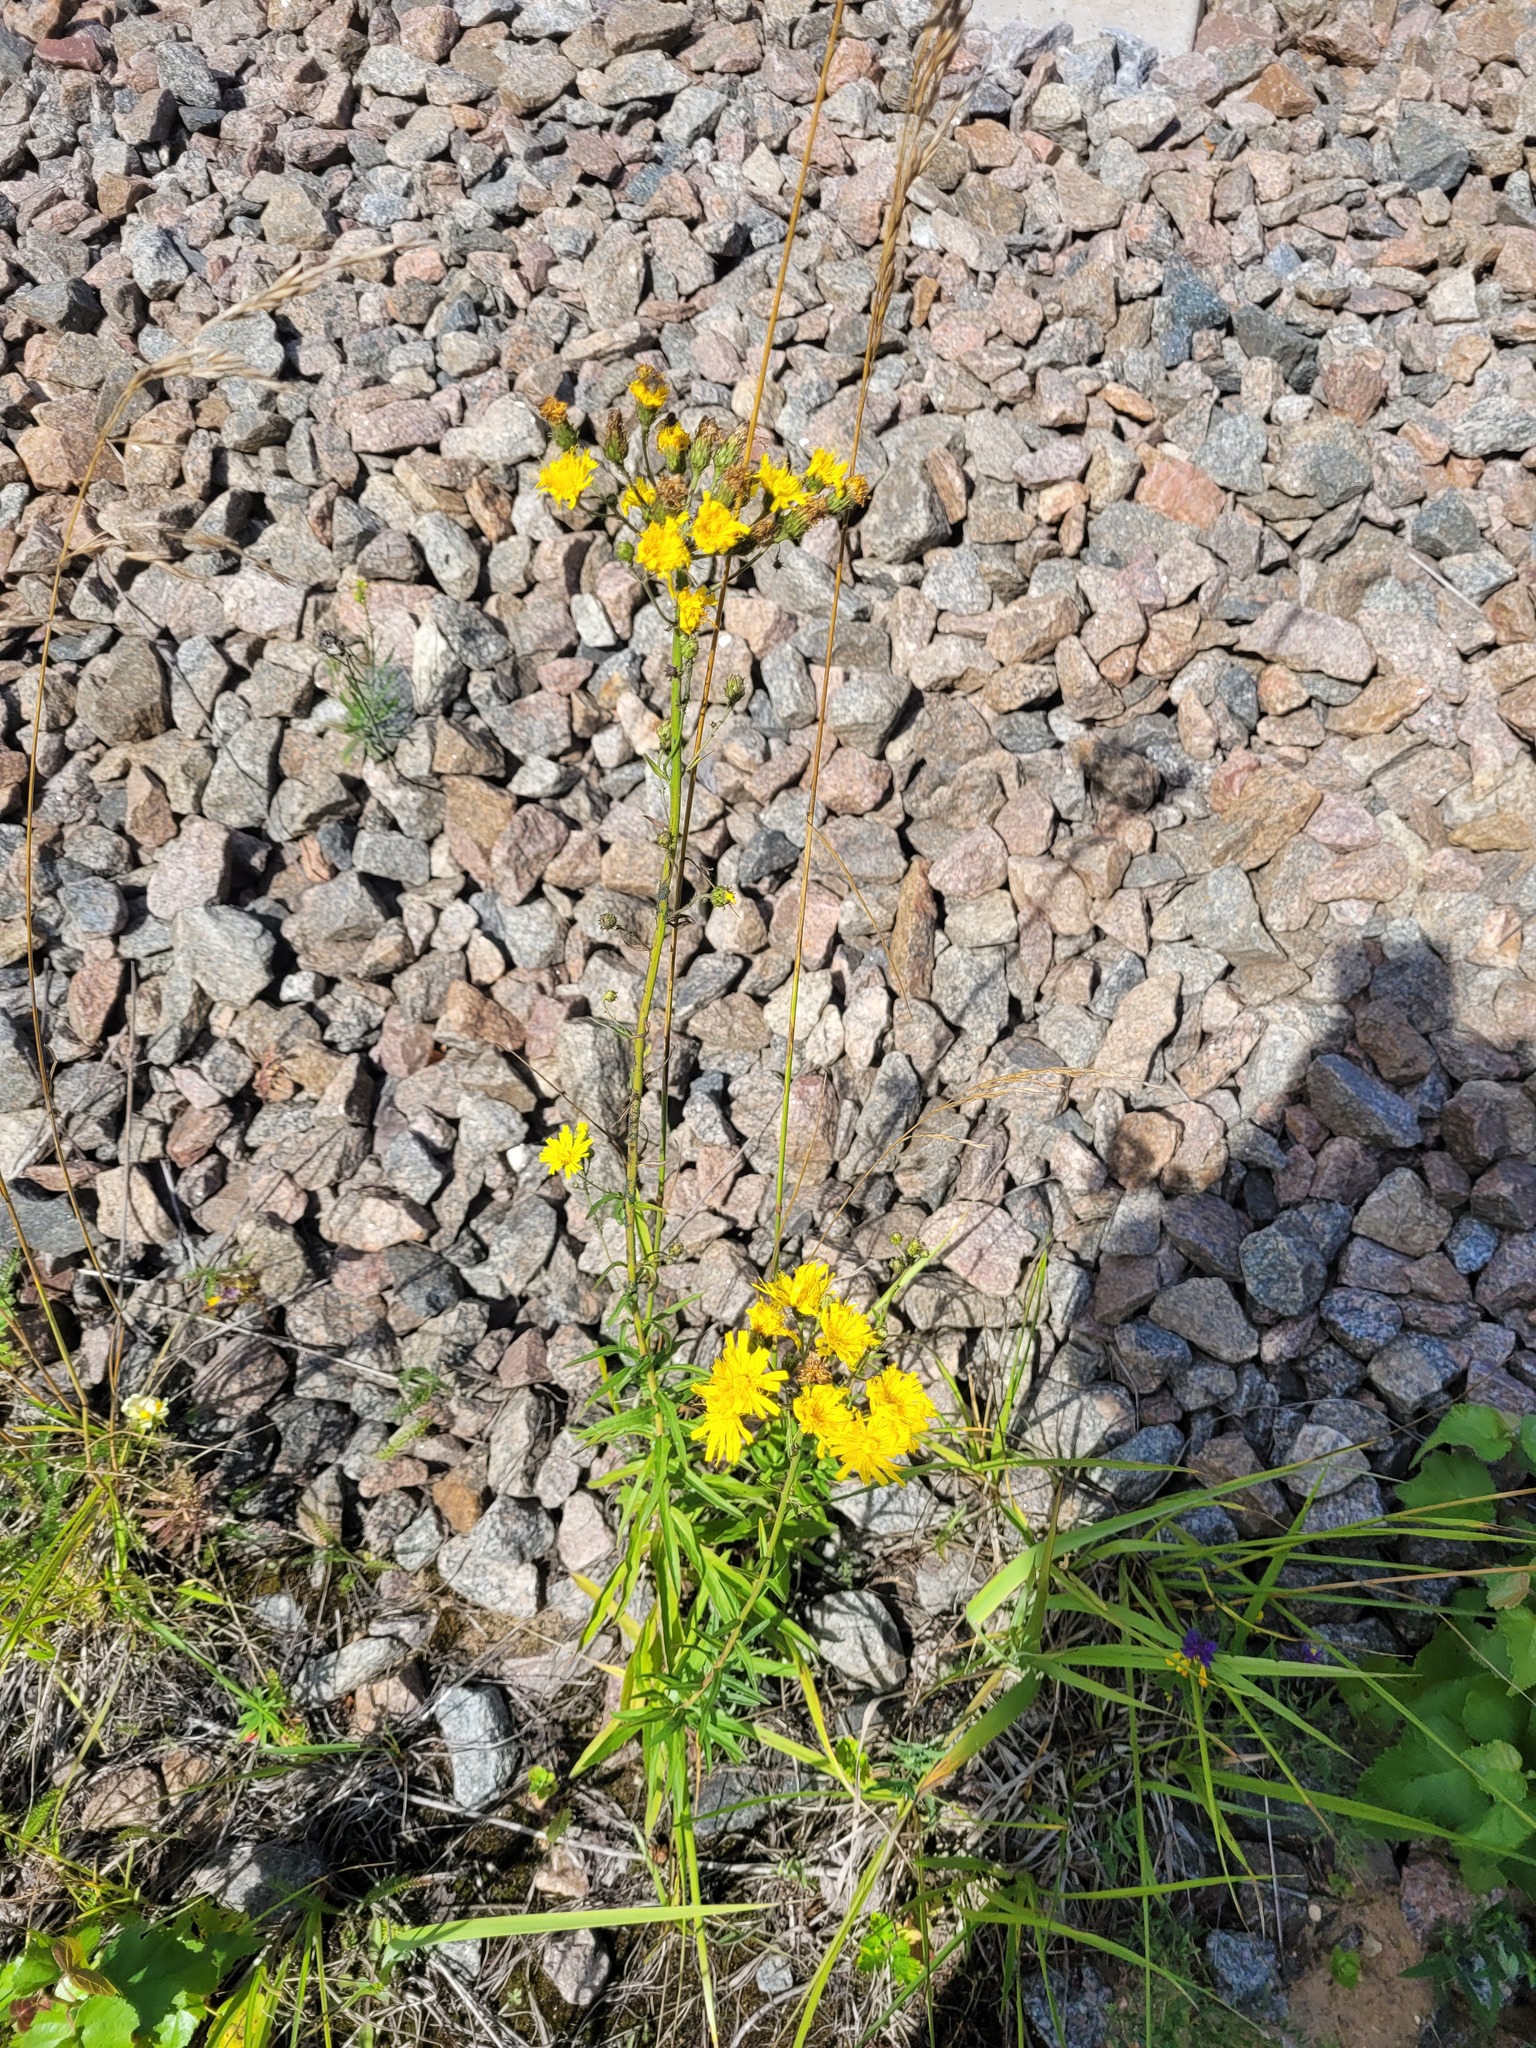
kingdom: Plantae
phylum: Tracheophyta
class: Magnoliopsida
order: Asterales
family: Asteraceae
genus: Hieracium
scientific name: Hieracium umbellatum
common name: Northern hawkweed
